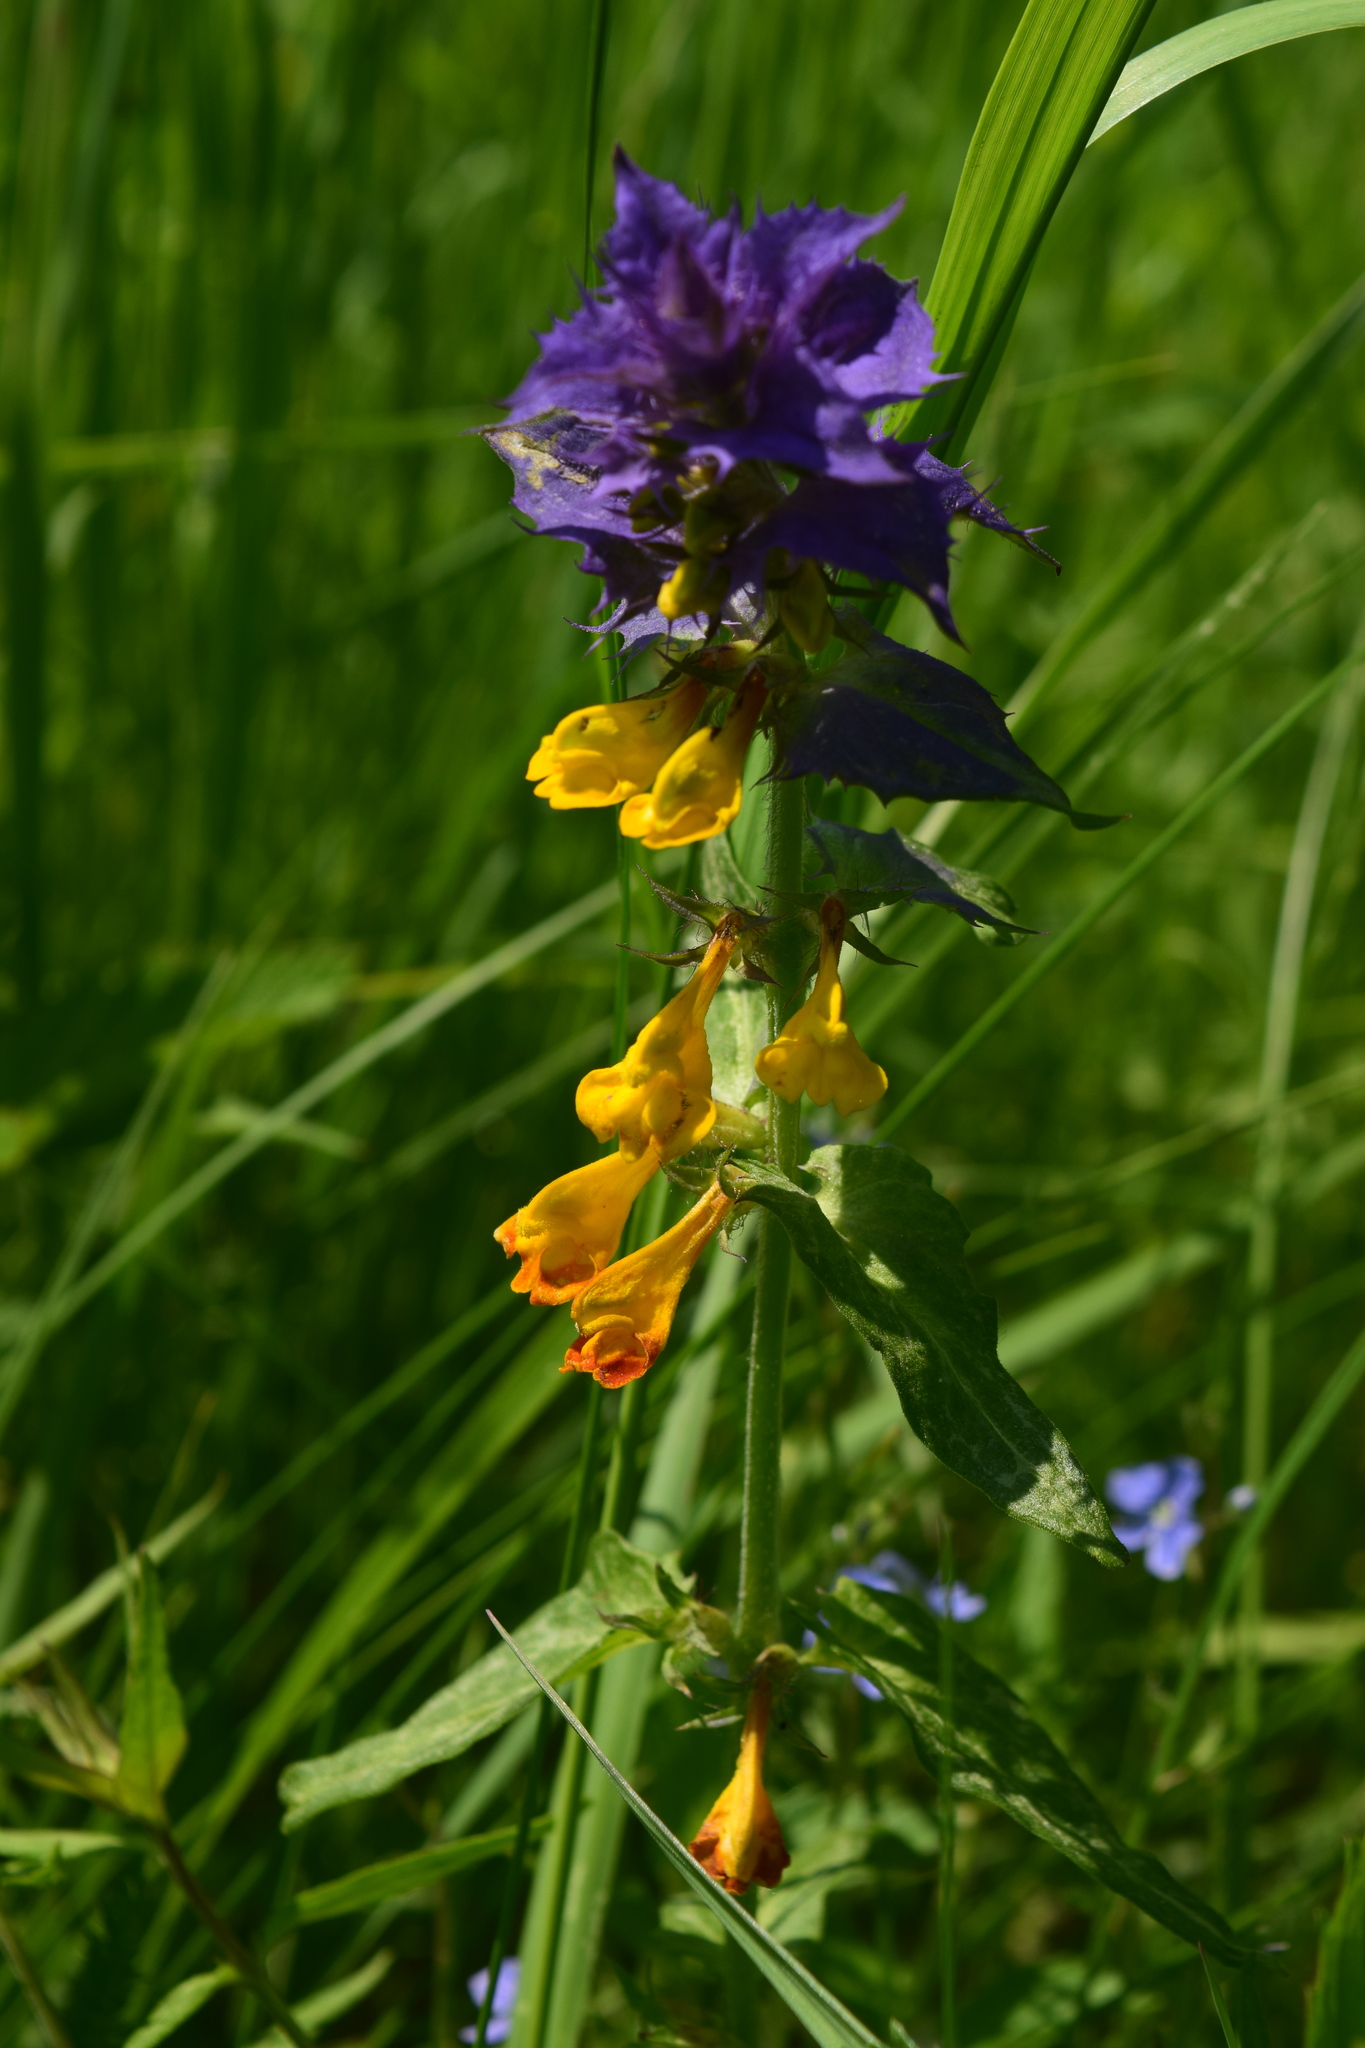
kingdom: Plantae
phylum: Tracheophyta
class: Magnoliopsida
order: Lamiales
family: Orobanchaceae
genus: Melampyrum
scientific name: Melampyrum nemorosum
